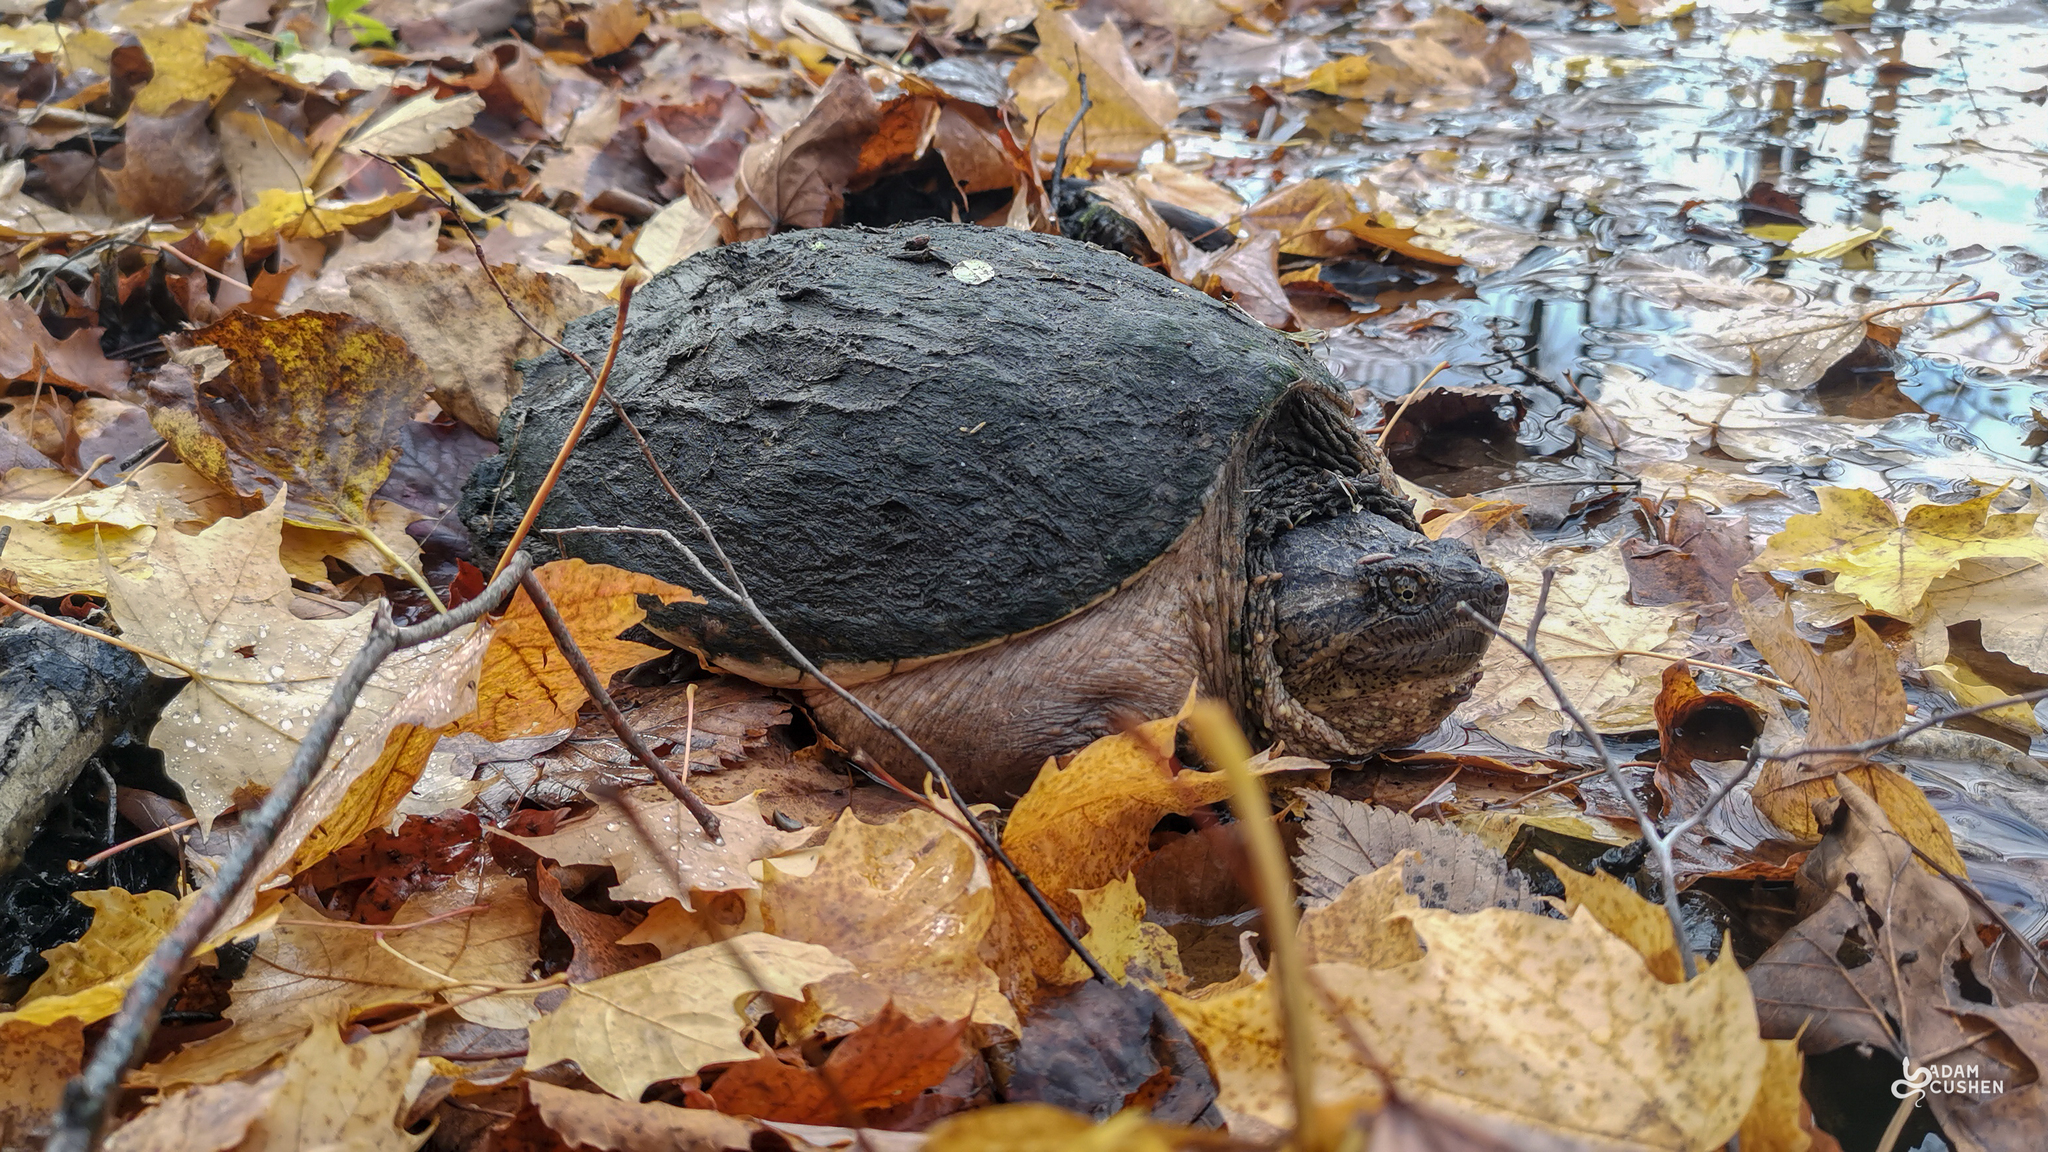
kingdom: Animalia
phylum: Chordata
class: Testudines
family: Chelydridae
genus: Chelydra
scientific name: Chelydra serpentina
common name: Common snapping turtle
